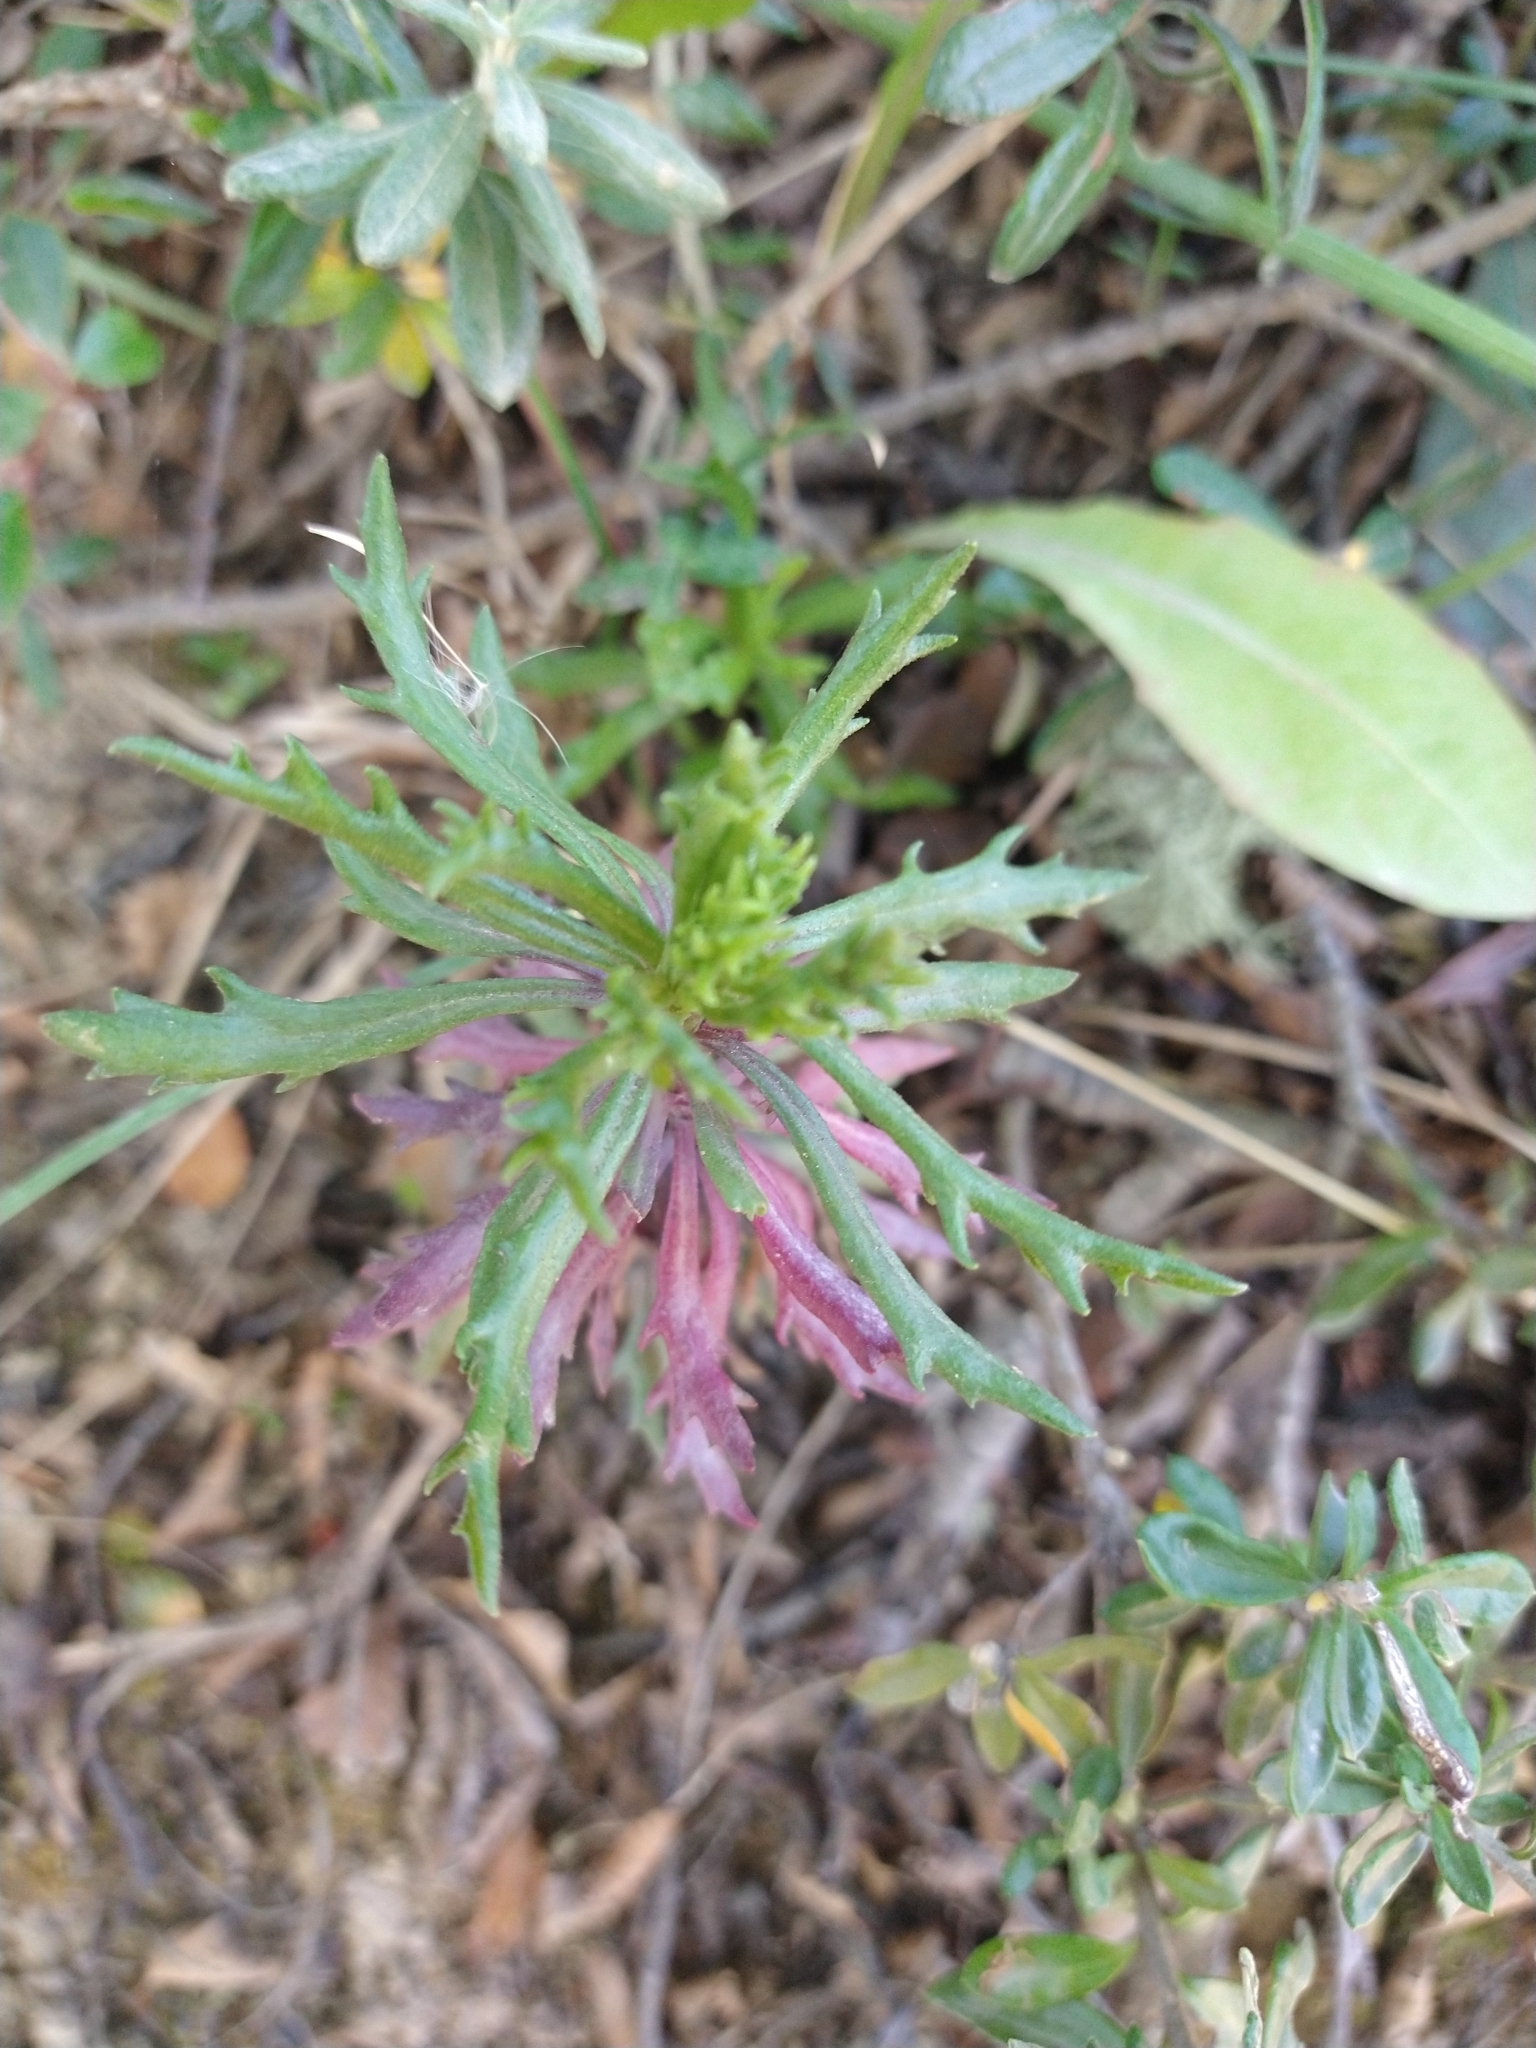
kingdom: Plantae
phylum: Tracheophyta
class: Magnoliopsida
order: Asterales
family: Asteraceae
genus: Senecio
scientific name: Senecio tricuspidatus
